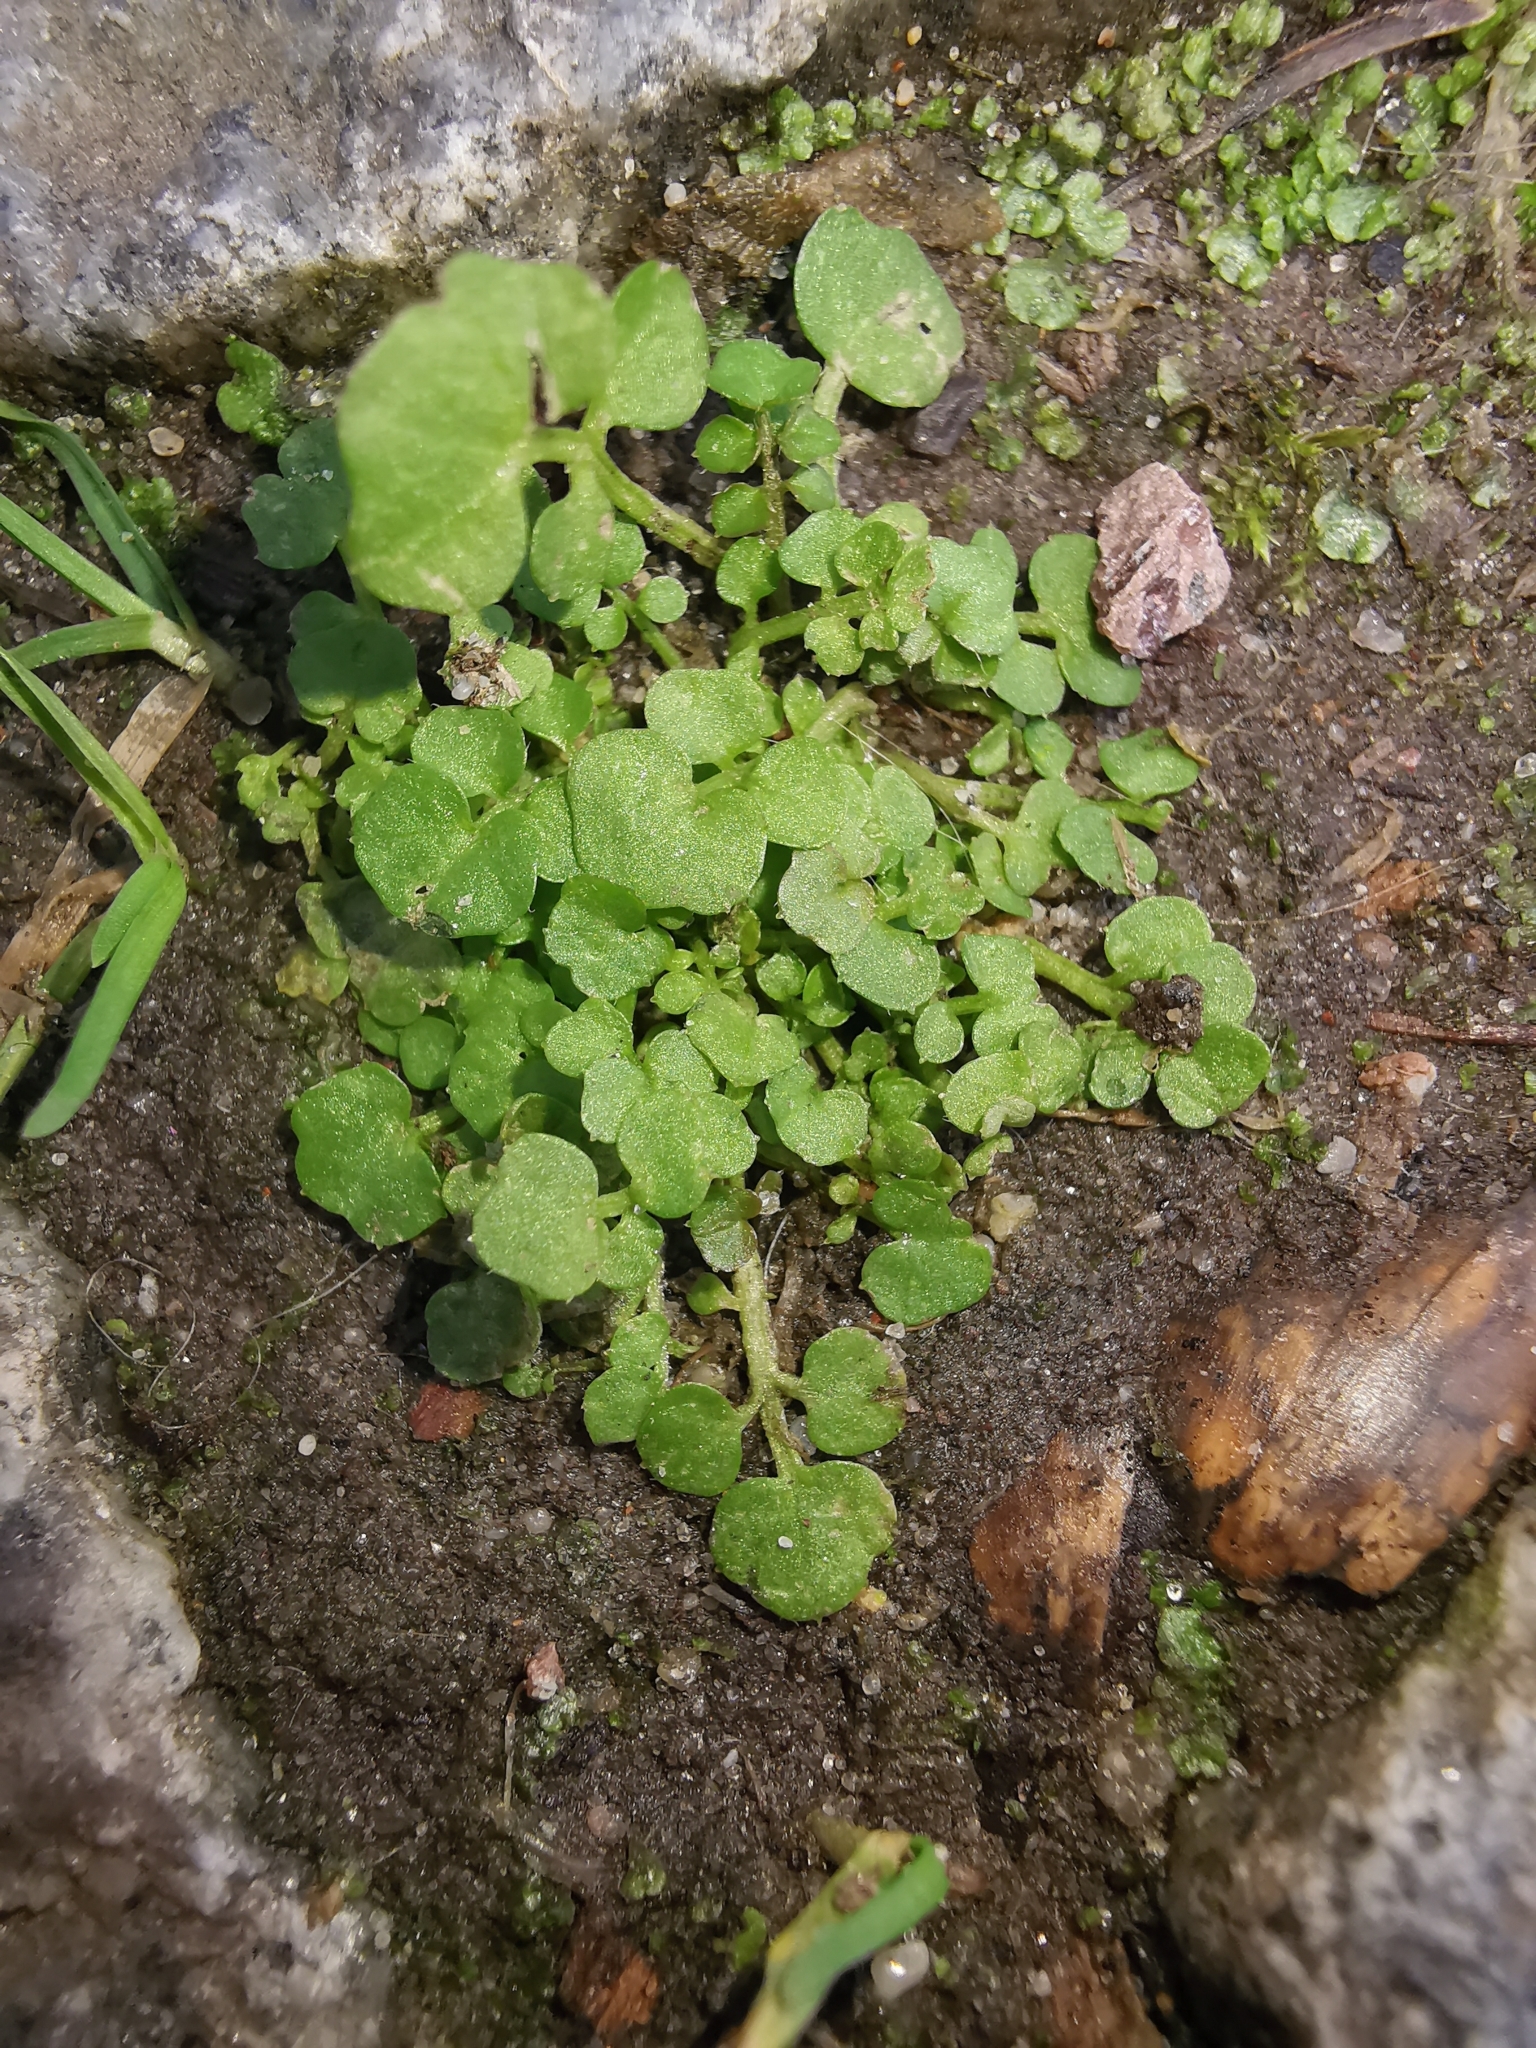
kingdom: Plantae
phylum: Tracheophyta
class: Magnoliopsida
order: Brassicales
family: Brassicaceae
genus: Cardamine
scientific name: Cardamine hirsuta
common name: Hairy bittercress
